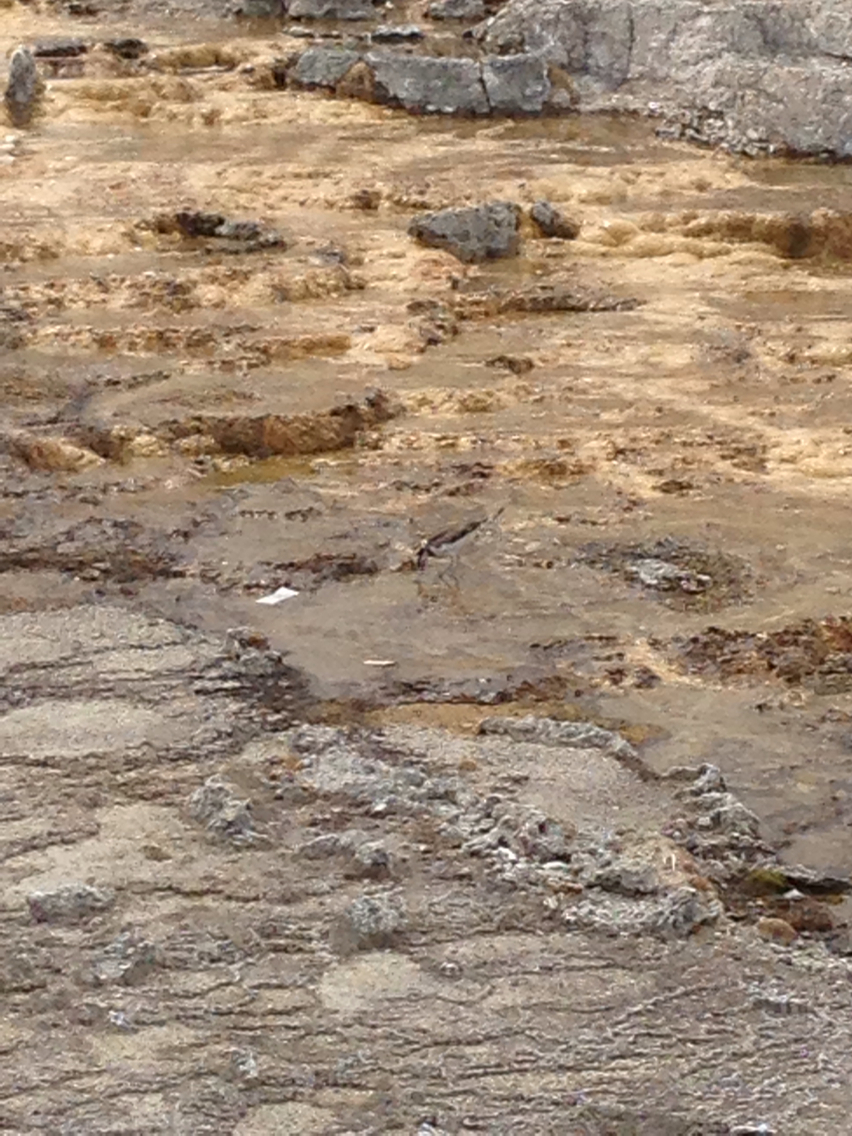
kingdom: Animalia
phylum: Chordata
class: Aves
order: Charadriiformes
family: Charadriidae
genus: Charadrius
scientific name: Charadrius vociferus
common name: Killdeer
